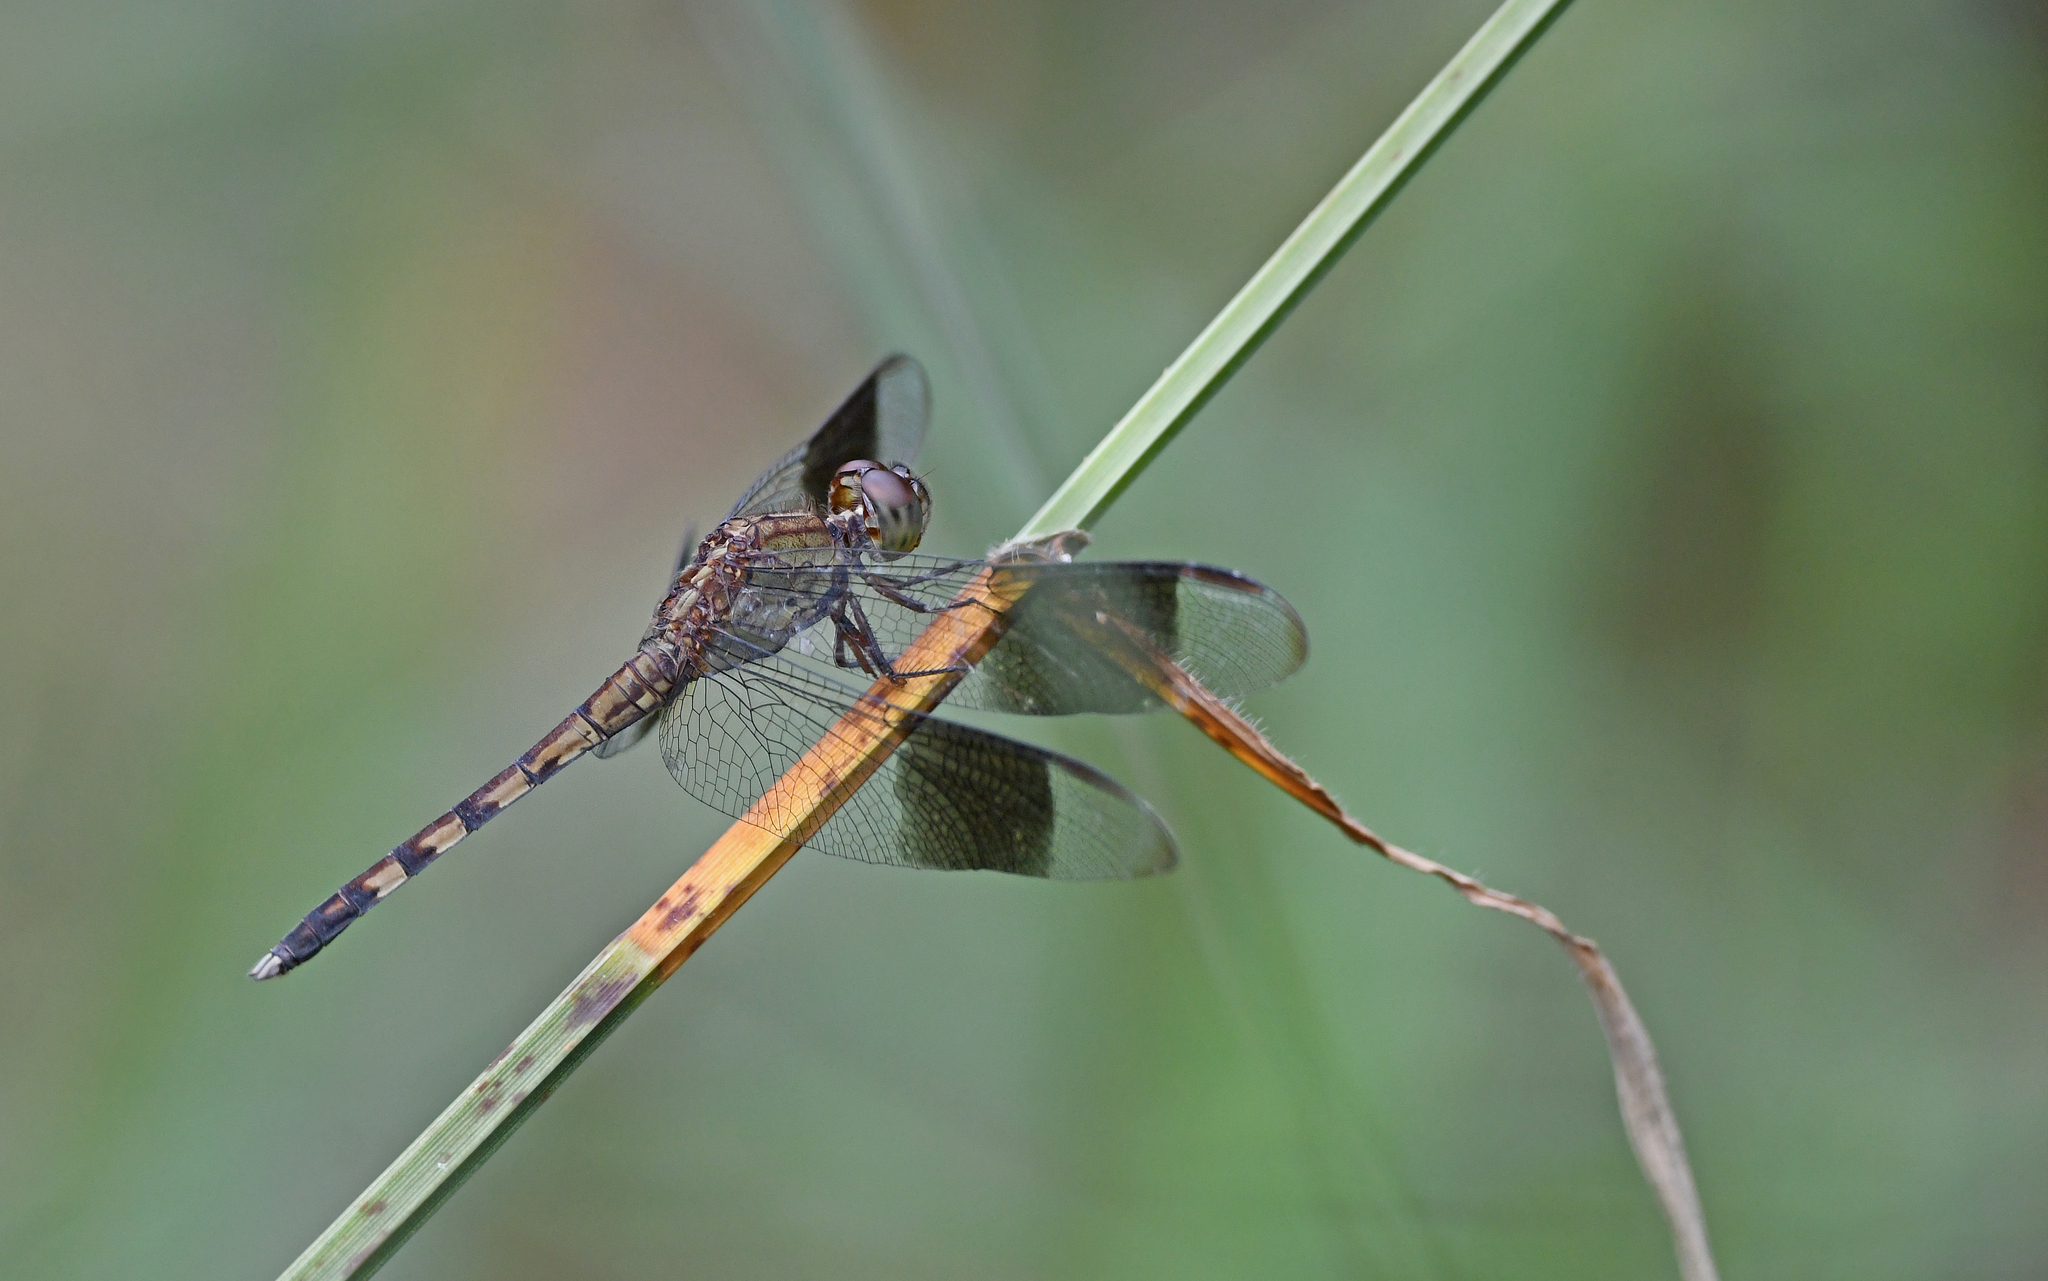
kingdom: Animalia
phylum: Arthropoda
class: Insecta
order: Odonata
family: Libellulidae
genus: Erythrodiplax
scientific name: Erythrodiplax umbrata
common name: Band-winged dragonlet
